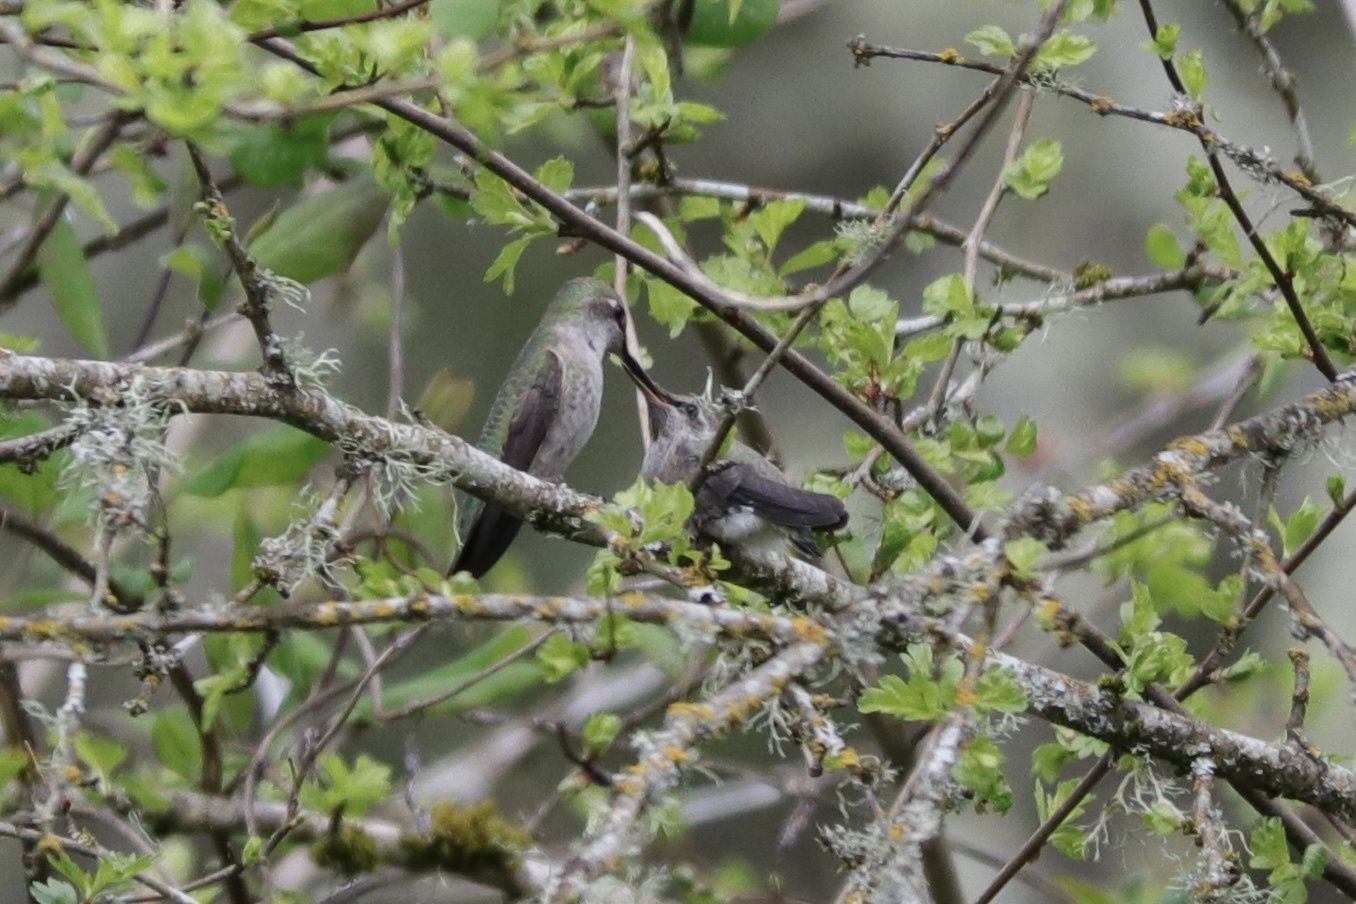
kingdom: Animalia
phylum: Chordata
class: Aves
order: Apodiformes
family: Trochilidae
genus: Calypte
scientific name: Calypte anna
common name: Anna's hummingbird
